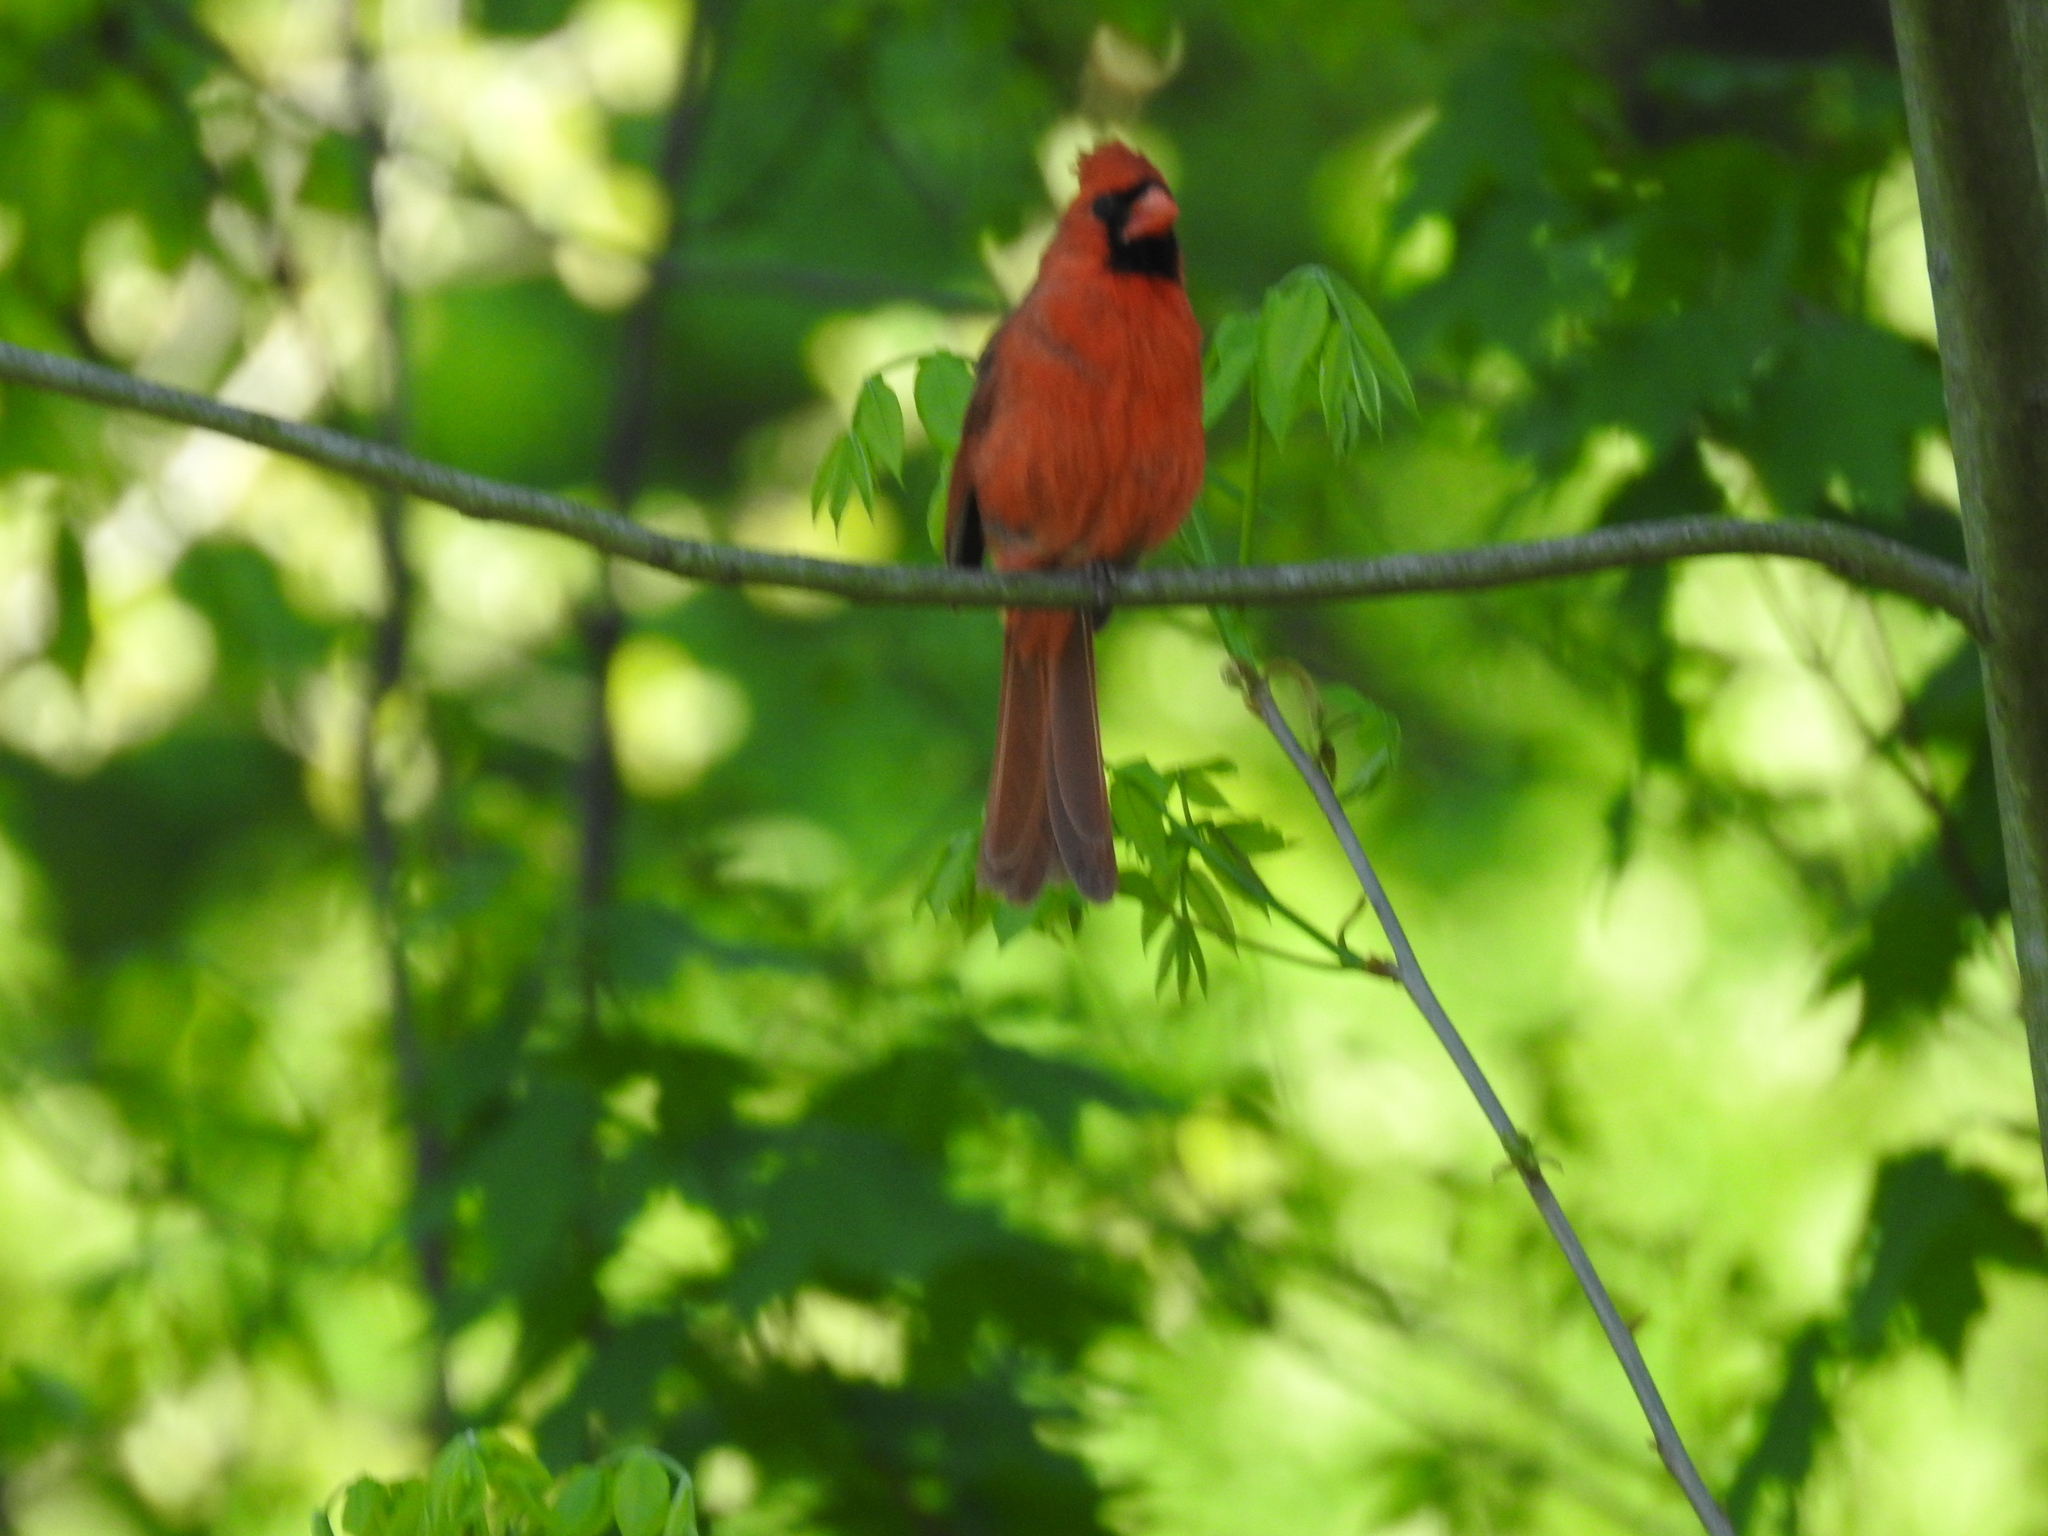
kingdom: Animalia
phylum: Chordata
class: Aves
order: Passeriformes
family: Cardinalidae
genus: Cardinalis
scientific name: Cardinalis cardinalis
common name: Northern cardinal
